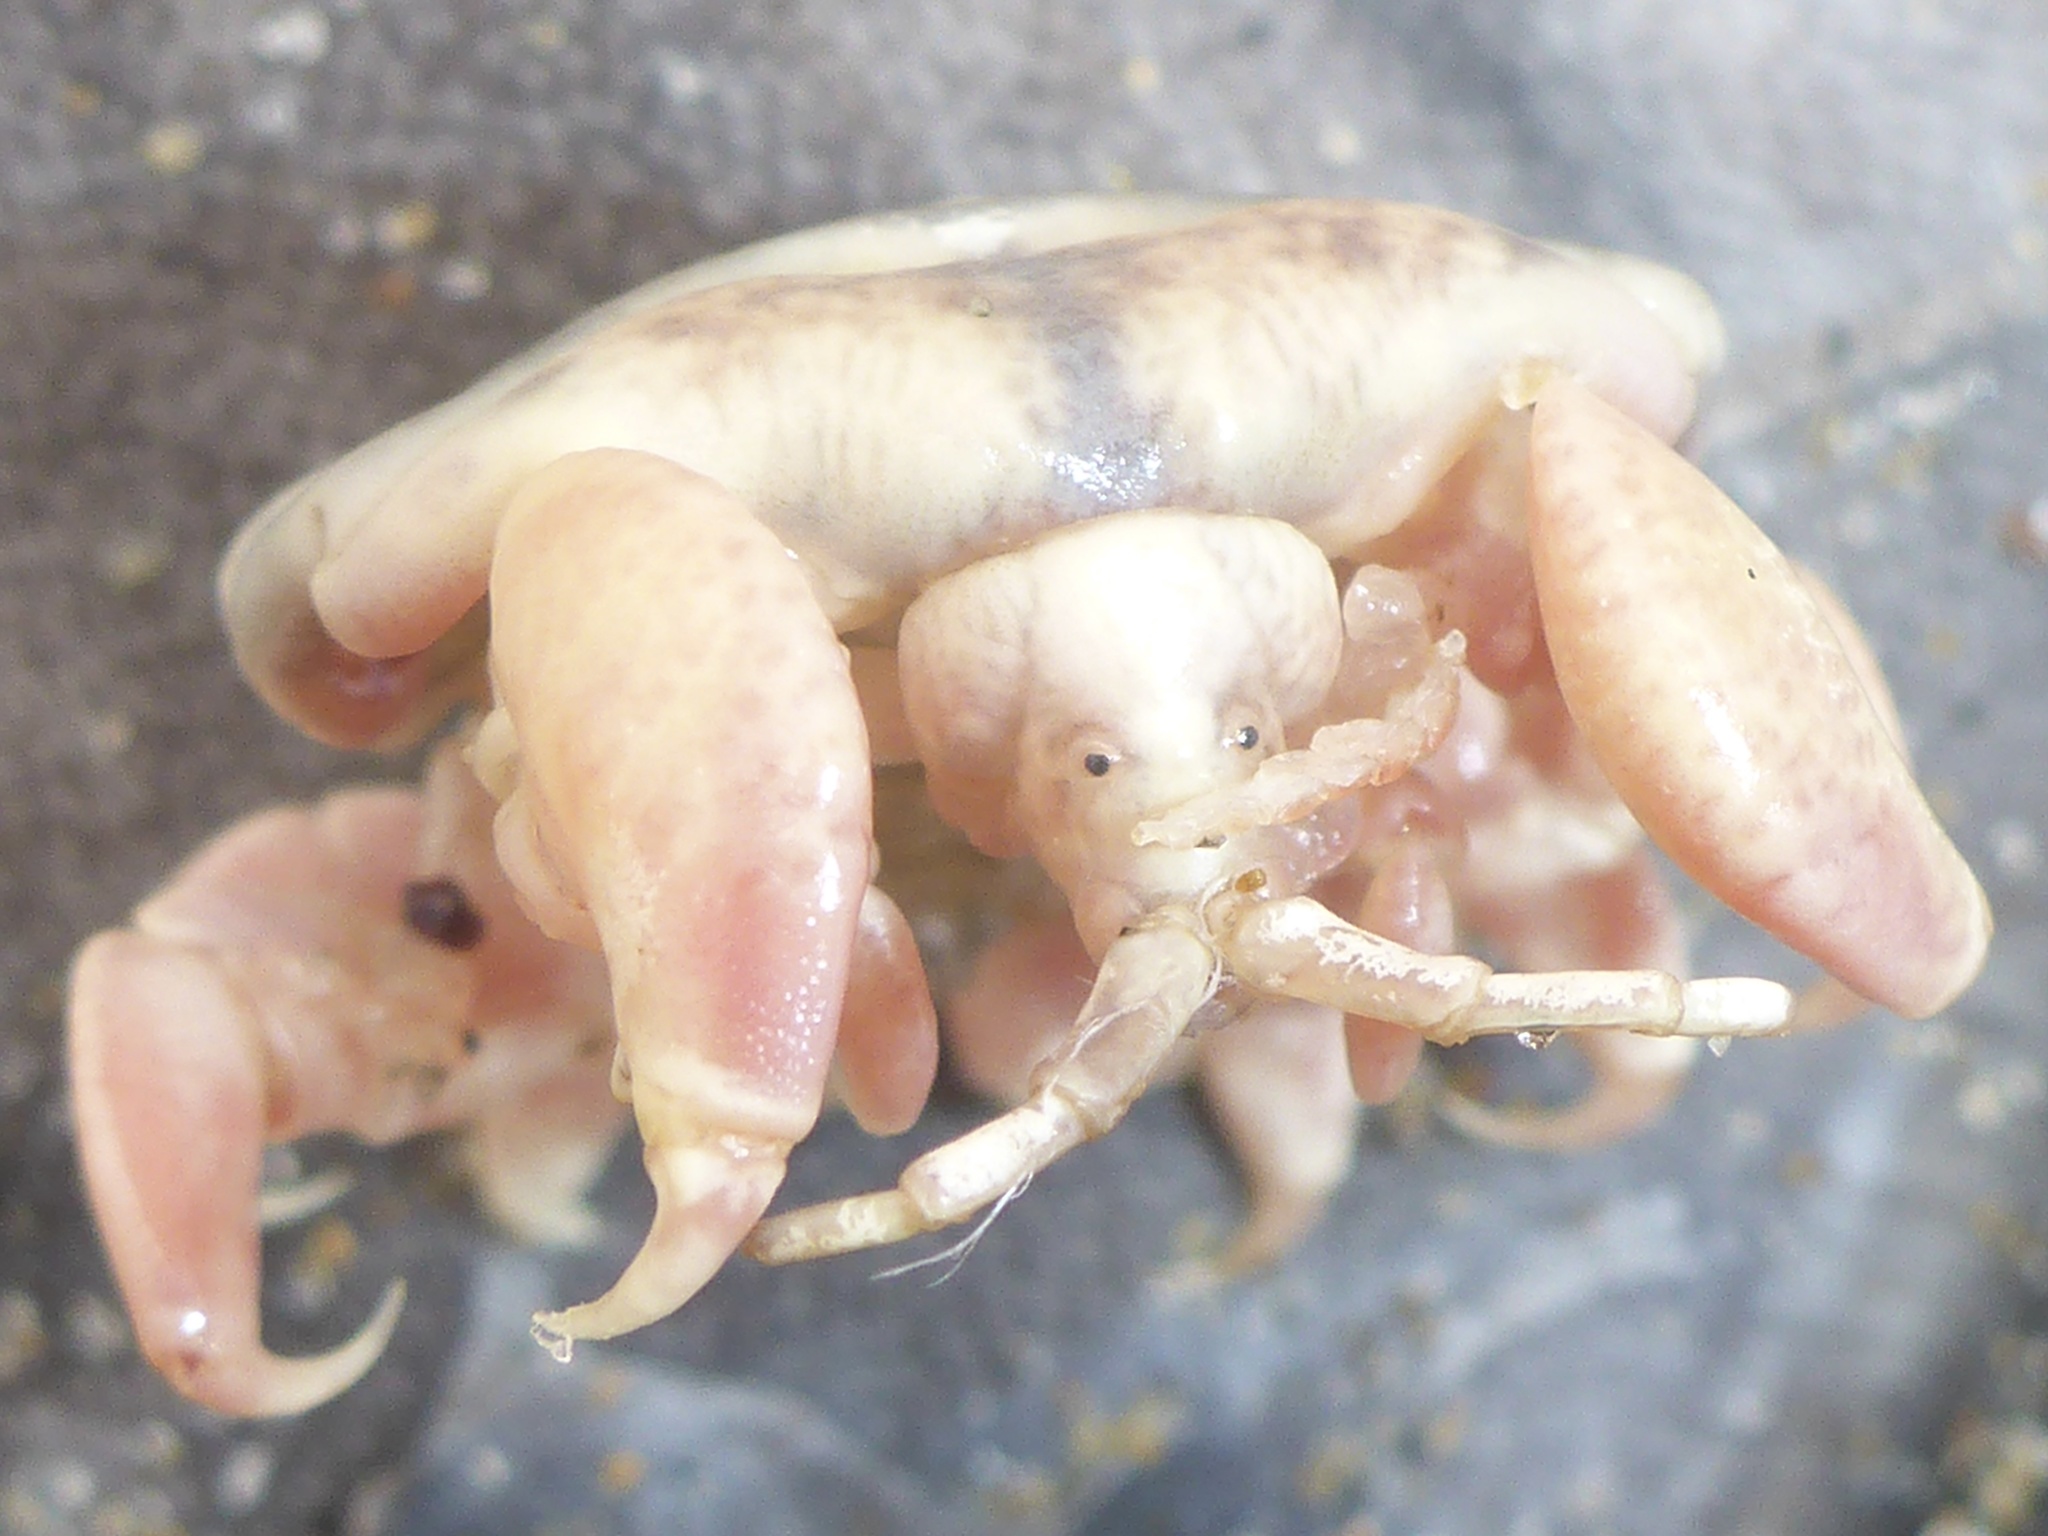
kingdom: Animalia
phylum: Arthropoda
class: Malacostraca
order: Amphipoda
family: Cyamidae
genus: Cyamus
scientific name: Cyamus scammoni
